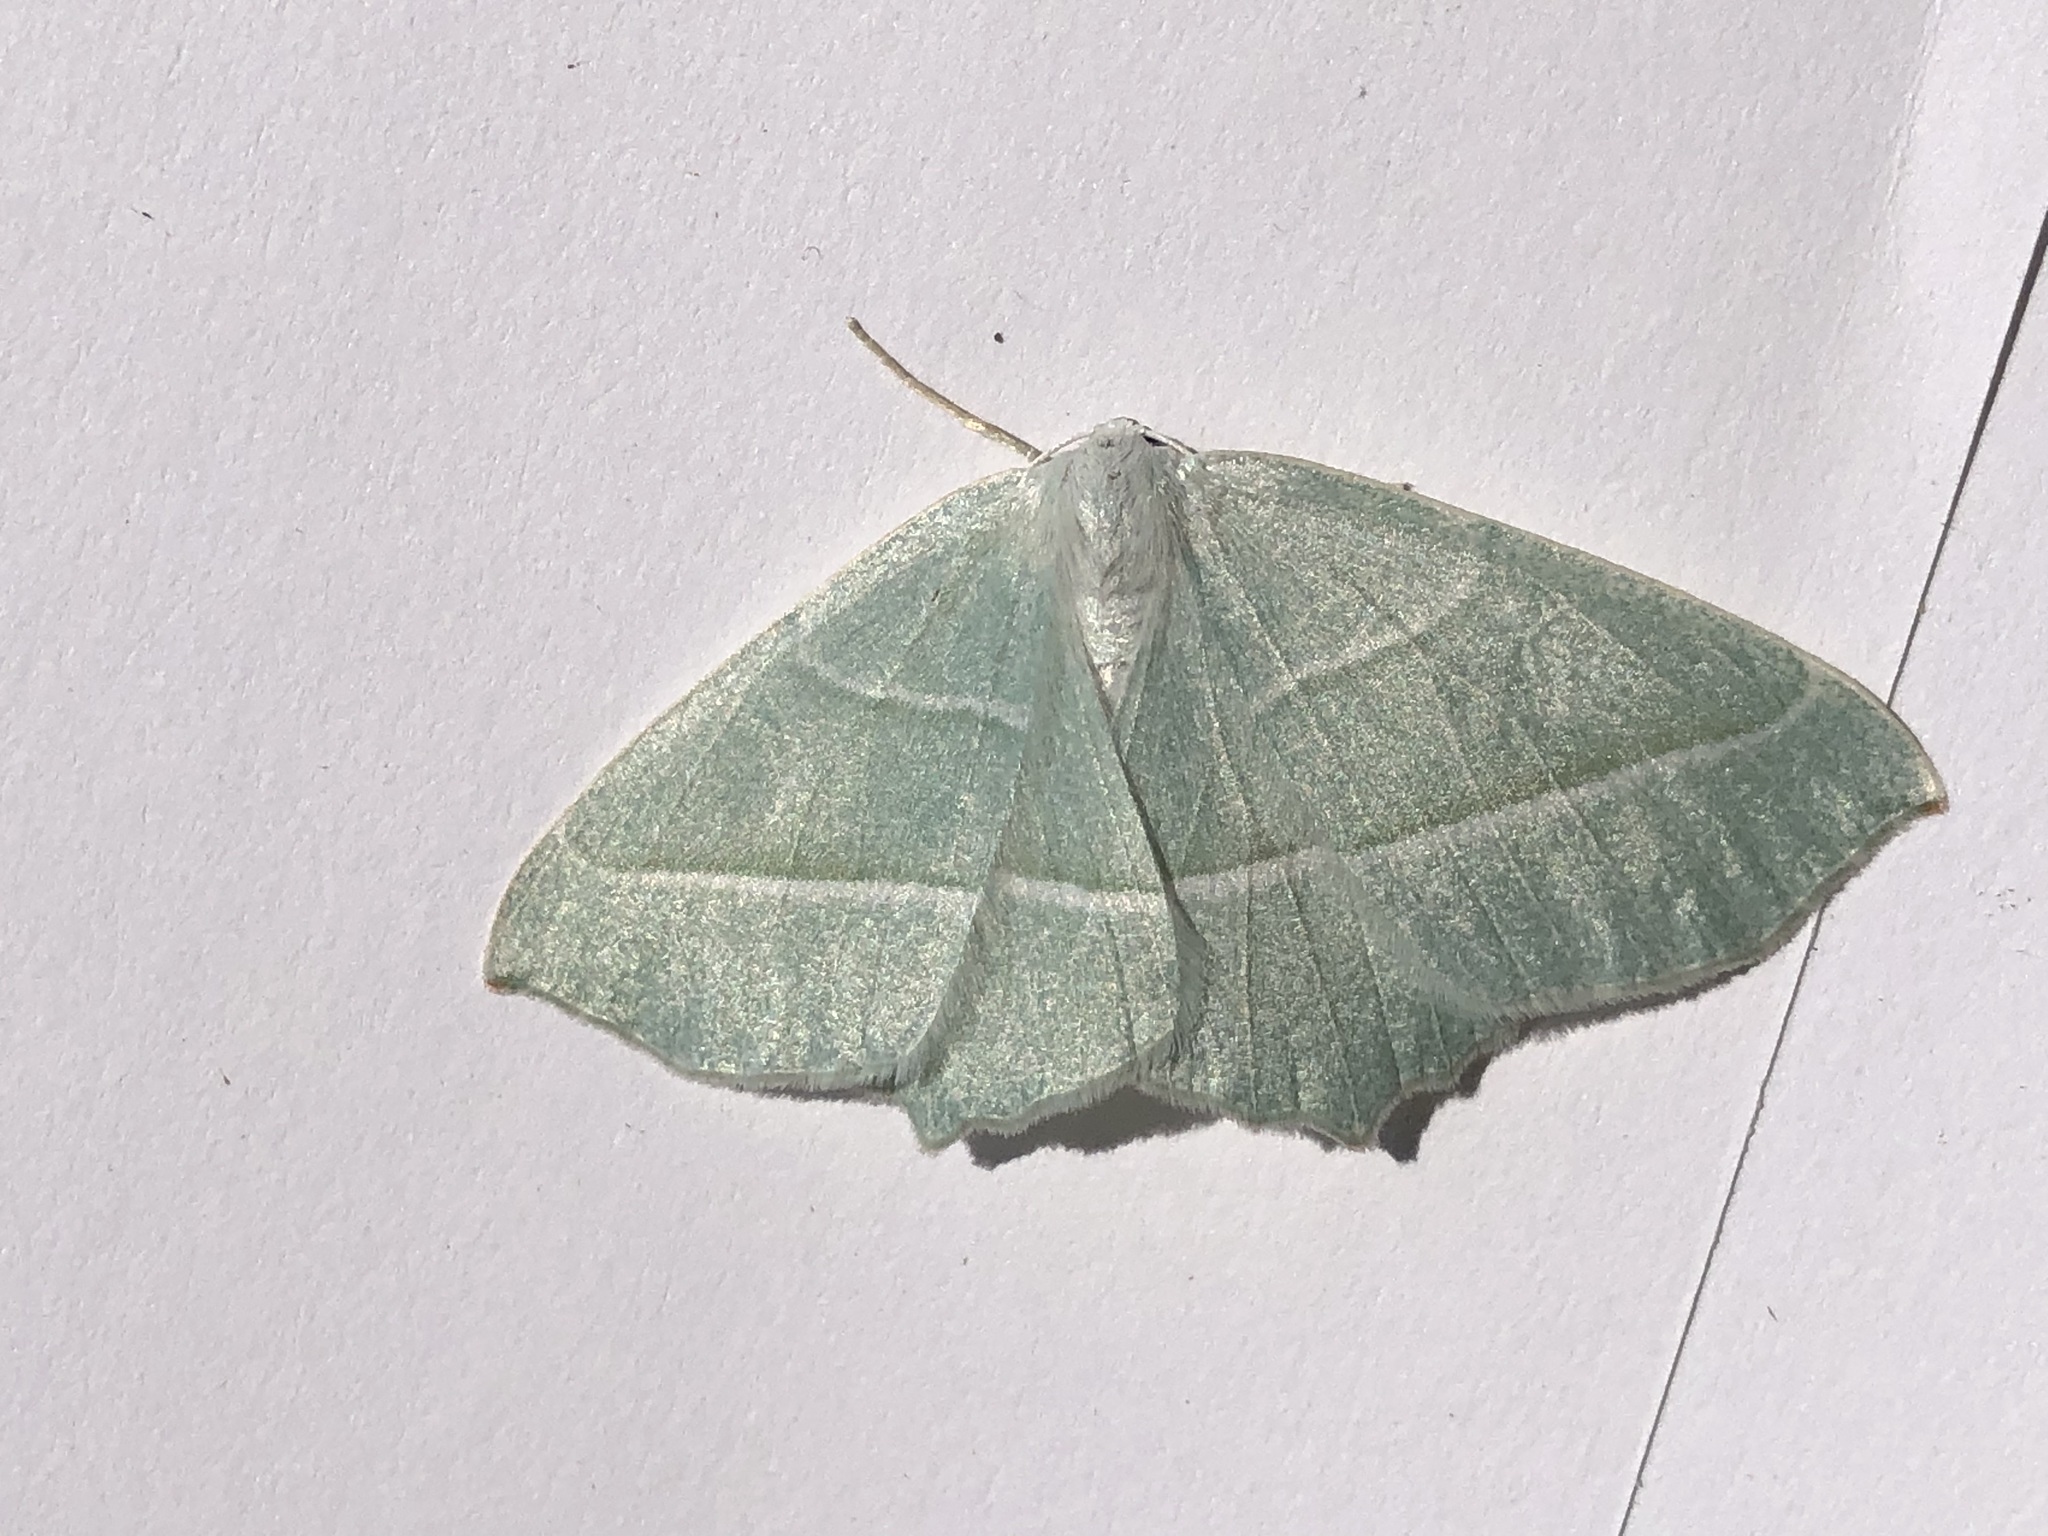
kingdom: Animalia
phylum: Arthropoda
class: Insecta
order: Lepidoptera
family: Geometridae
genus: Campaea
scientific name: Campaea margaritaria
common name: Light emerald
